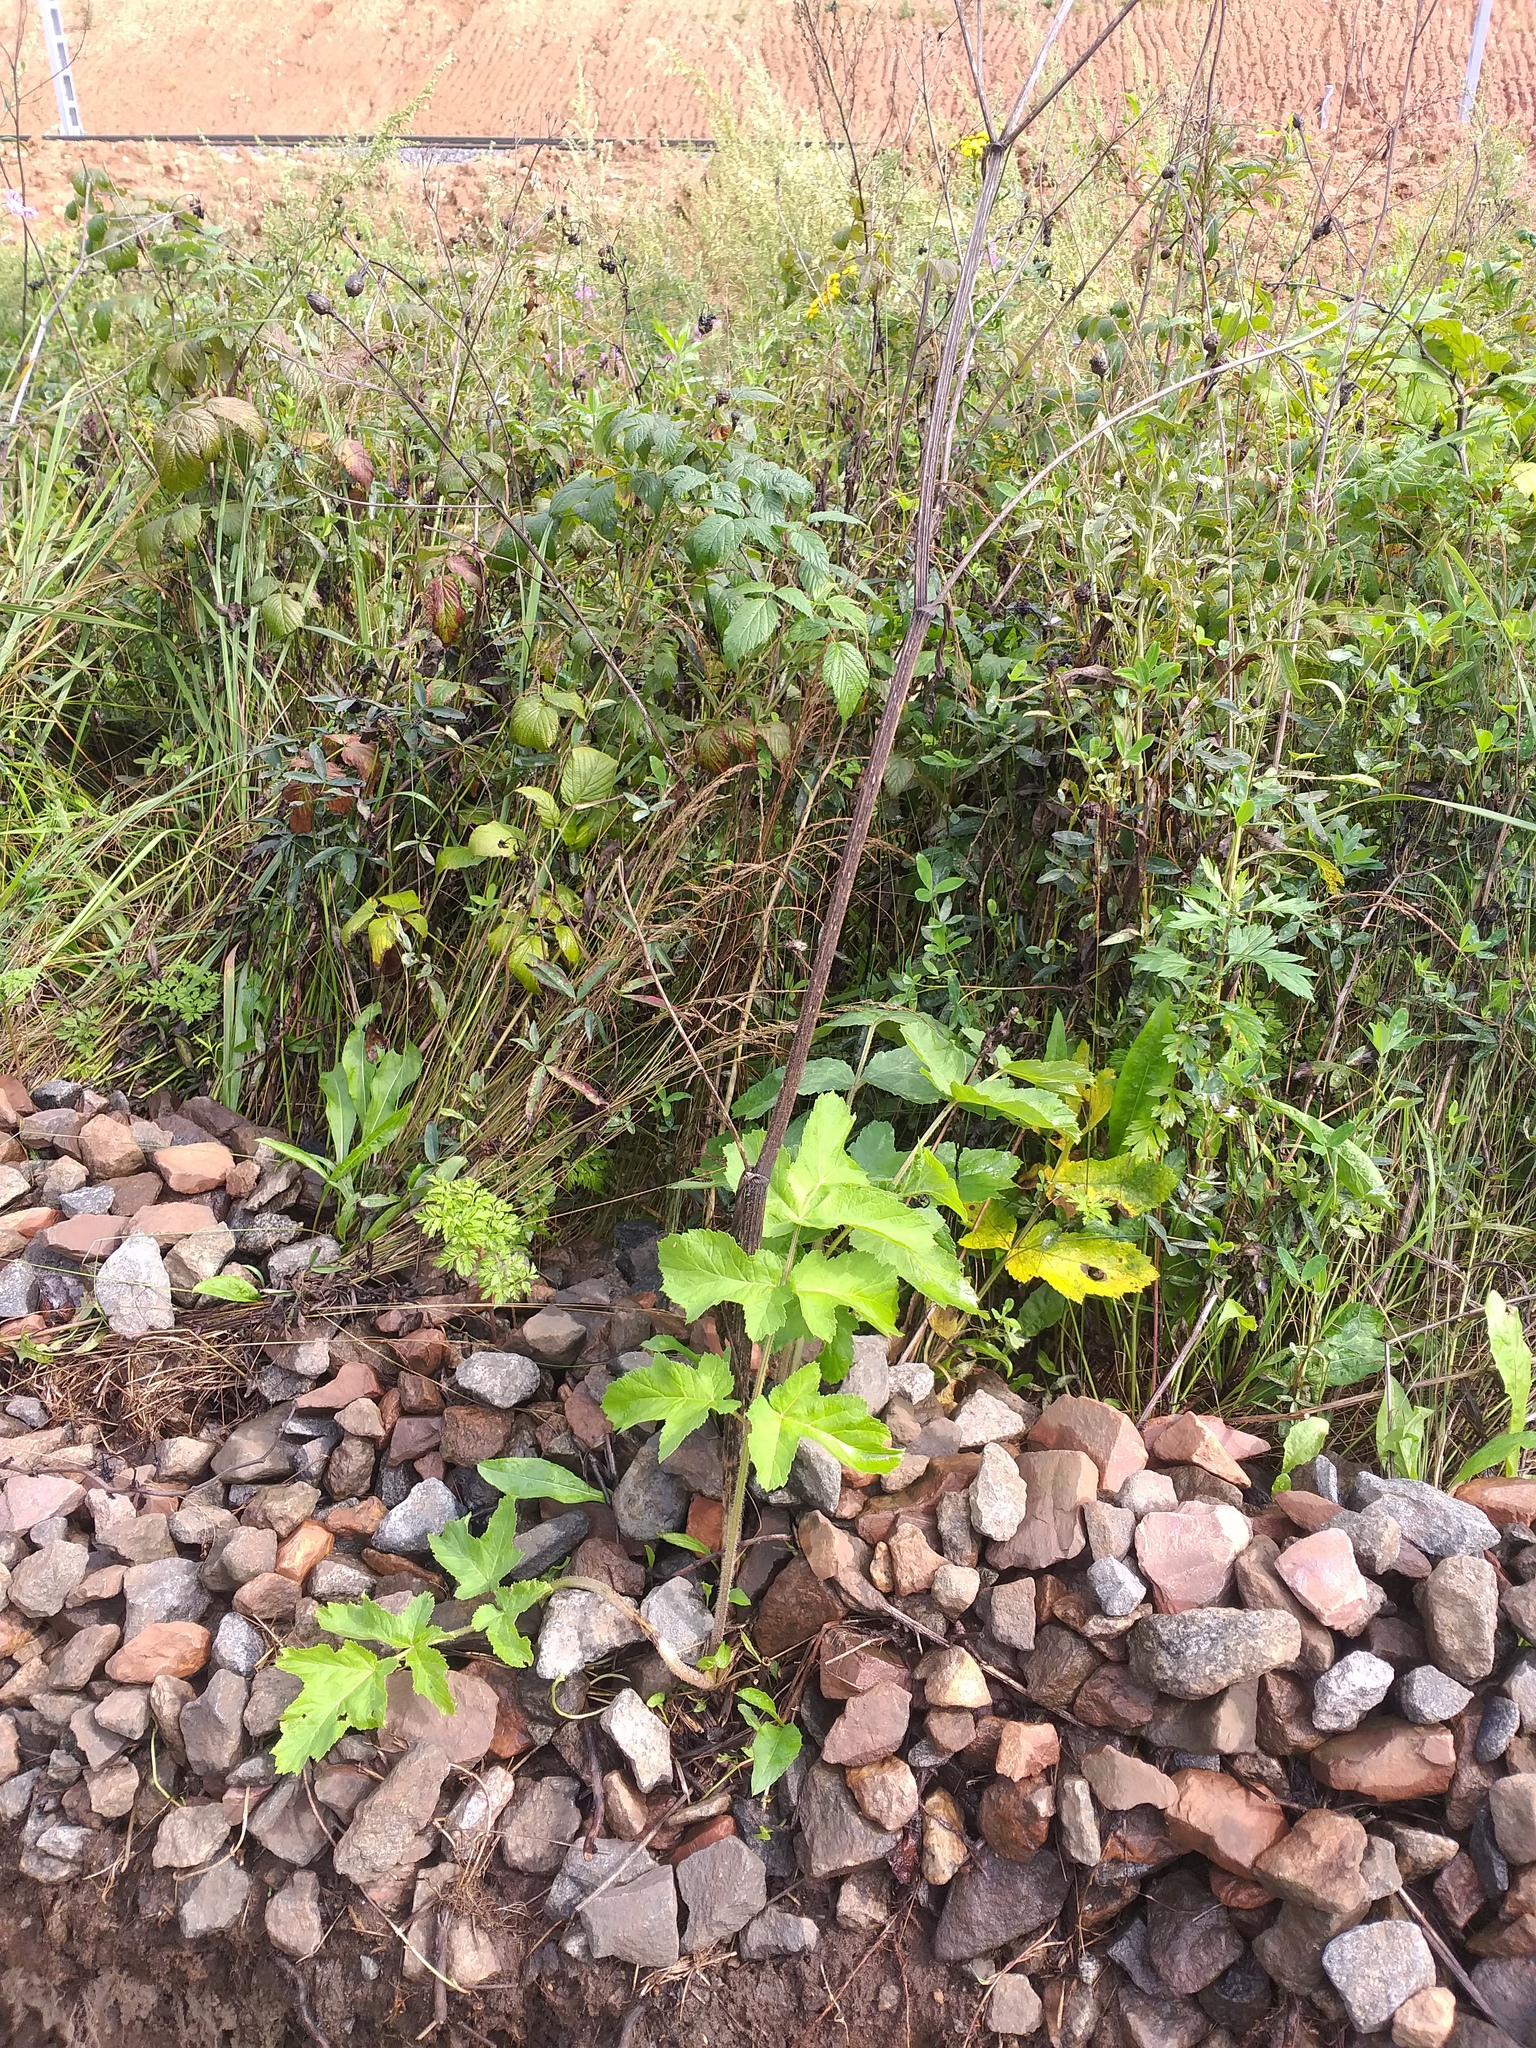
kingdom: Plantae
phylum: Tracheophyta
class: Magnoliopsida
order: Apiales
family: Apiaceae
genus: Heracleum
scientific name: Heracleum sphondylium
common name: Hogweed
